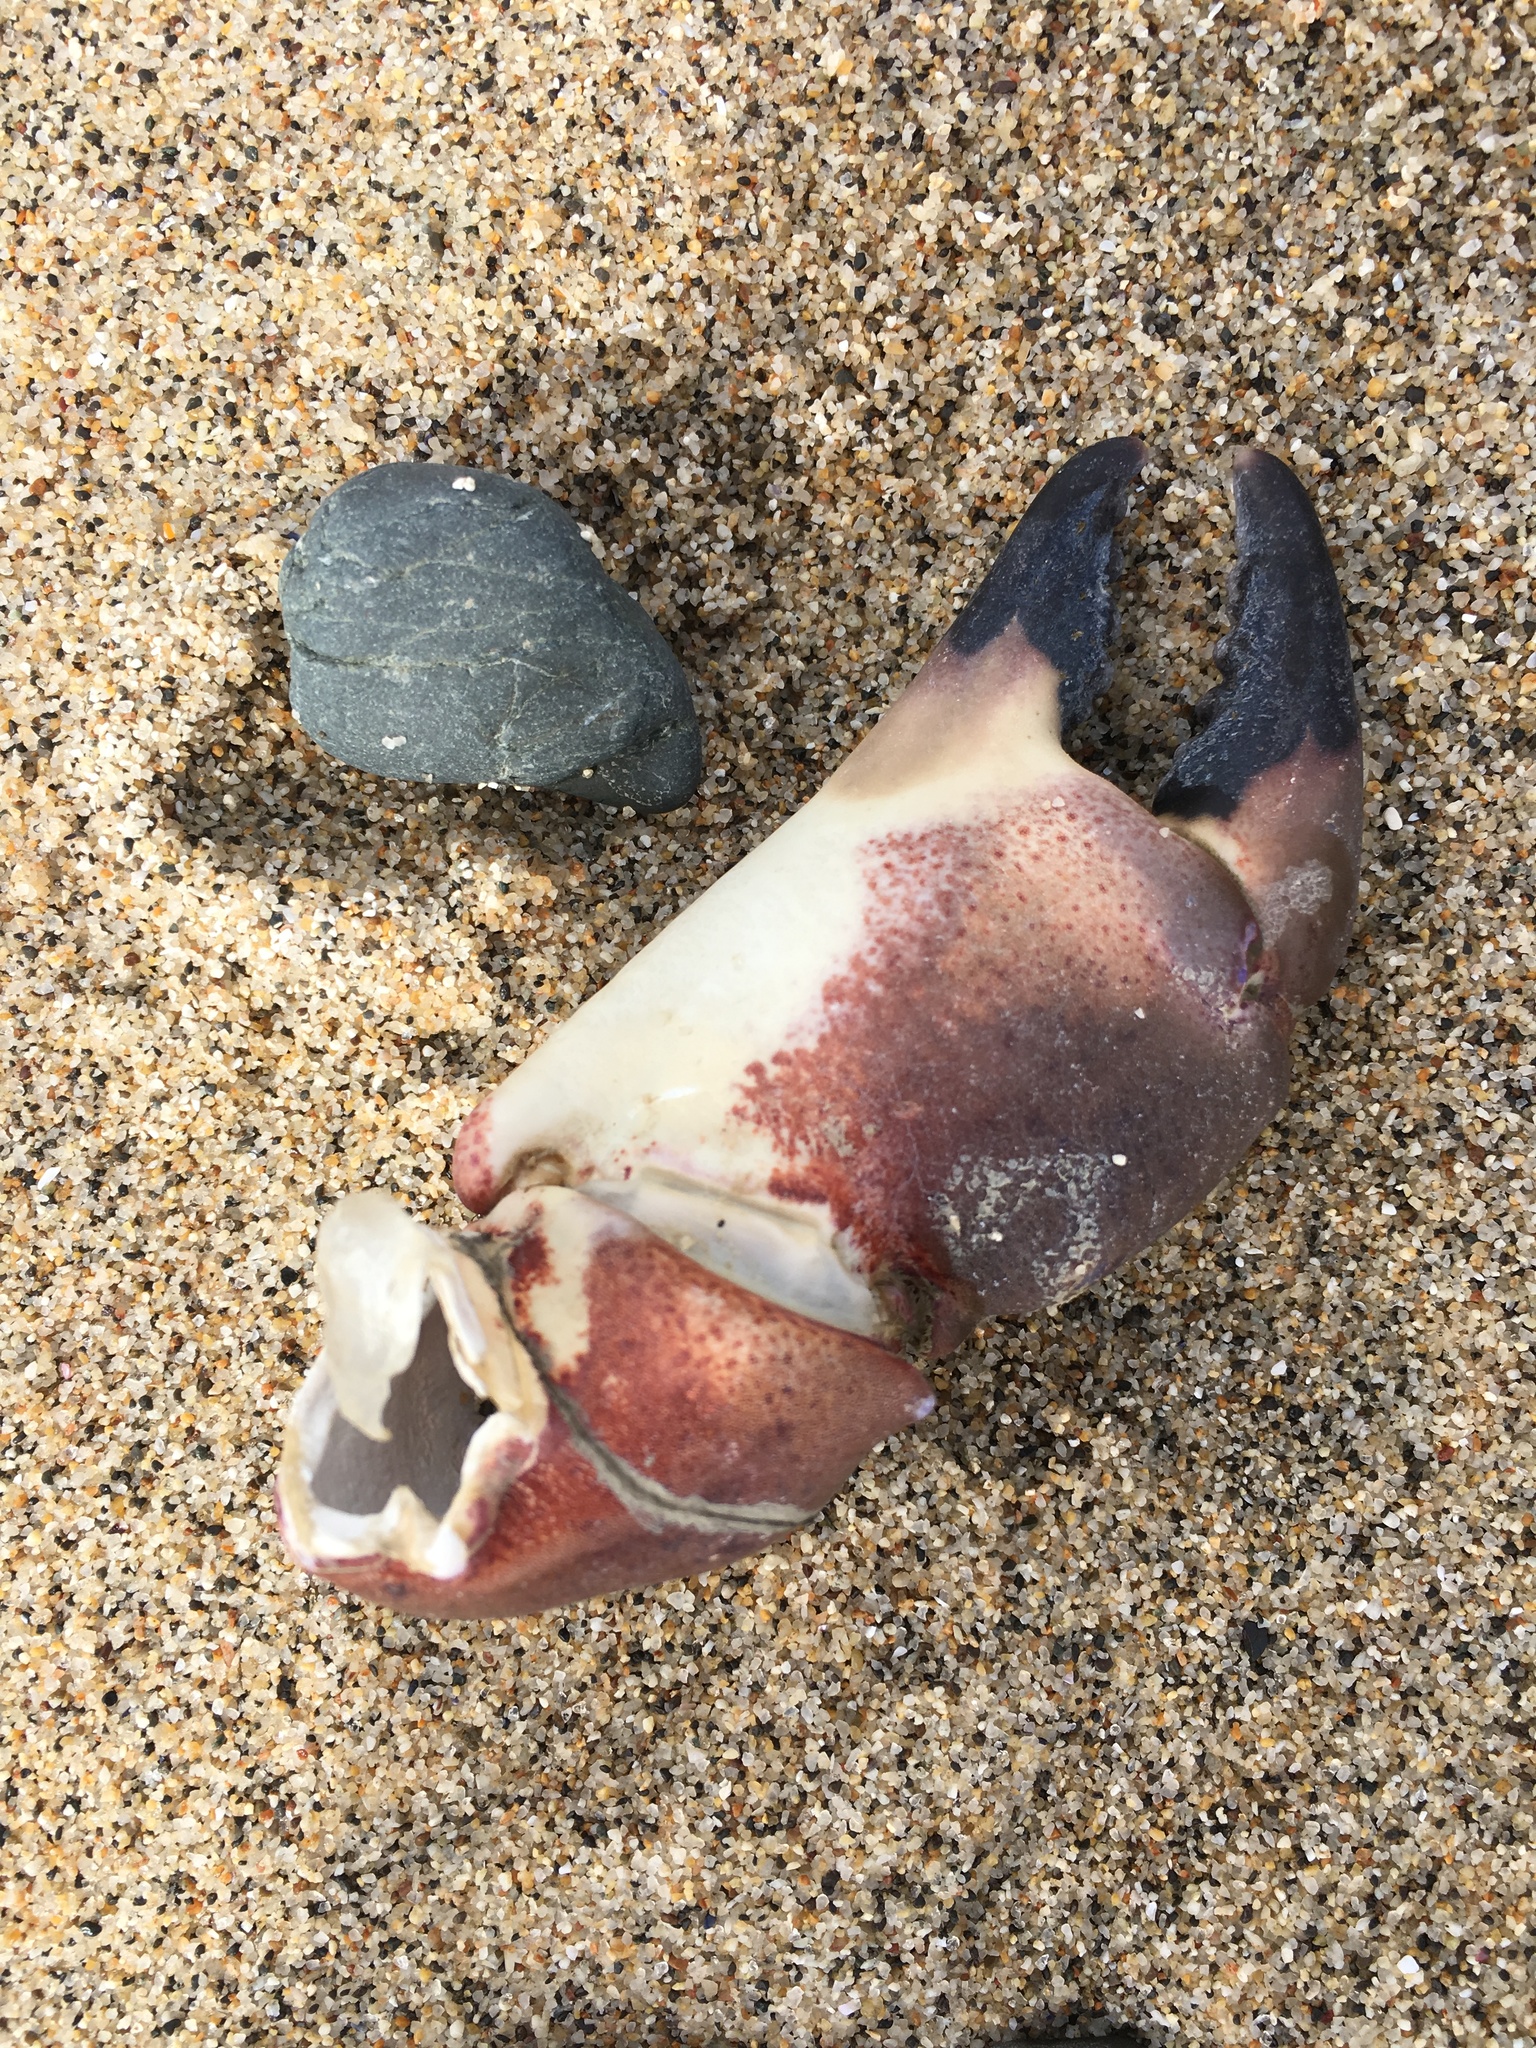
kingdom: Animalia
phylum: Arthropoda
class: Malacostraca
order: Decapoda
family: Cancridae
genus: Romaleon
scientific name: Romaleon antennarium
